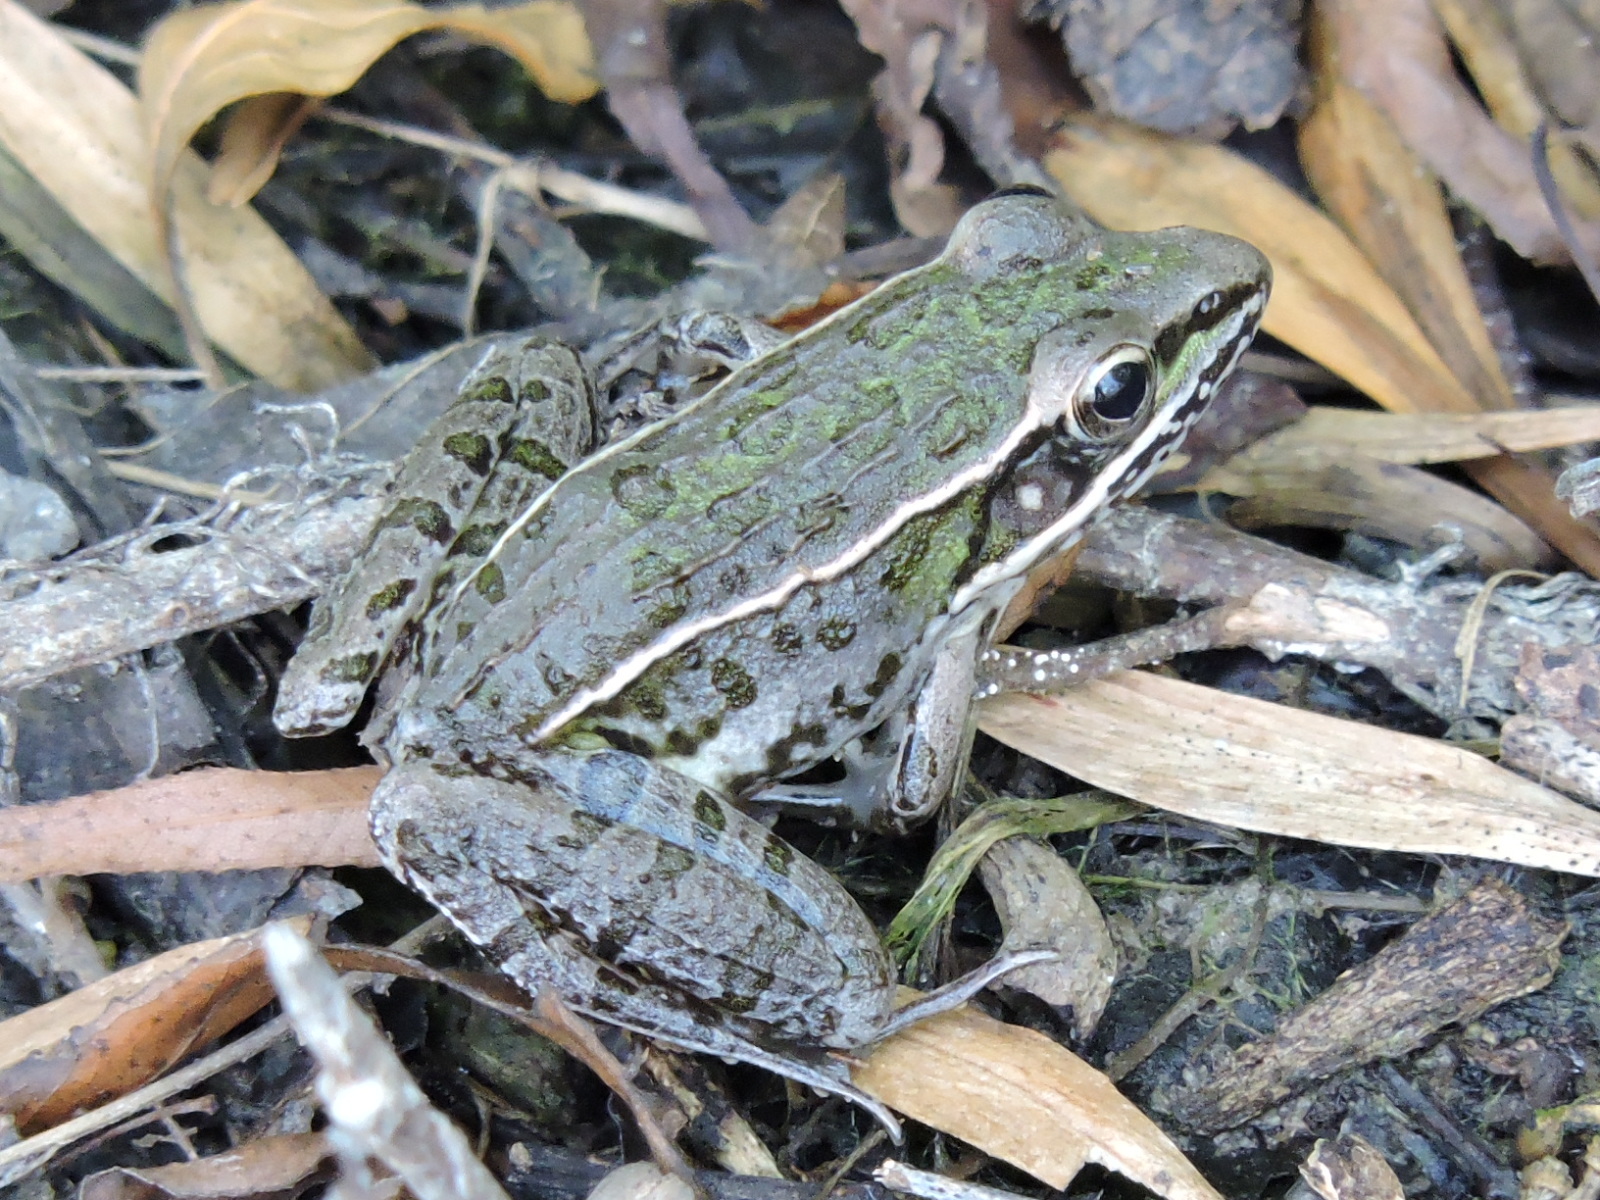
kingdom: Animalia
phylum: Chordata
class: Amphibia
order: Anura
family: Ranidae
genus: Lithobates
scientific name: Lithobates sphenocephalus
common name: Southern leopard frog
